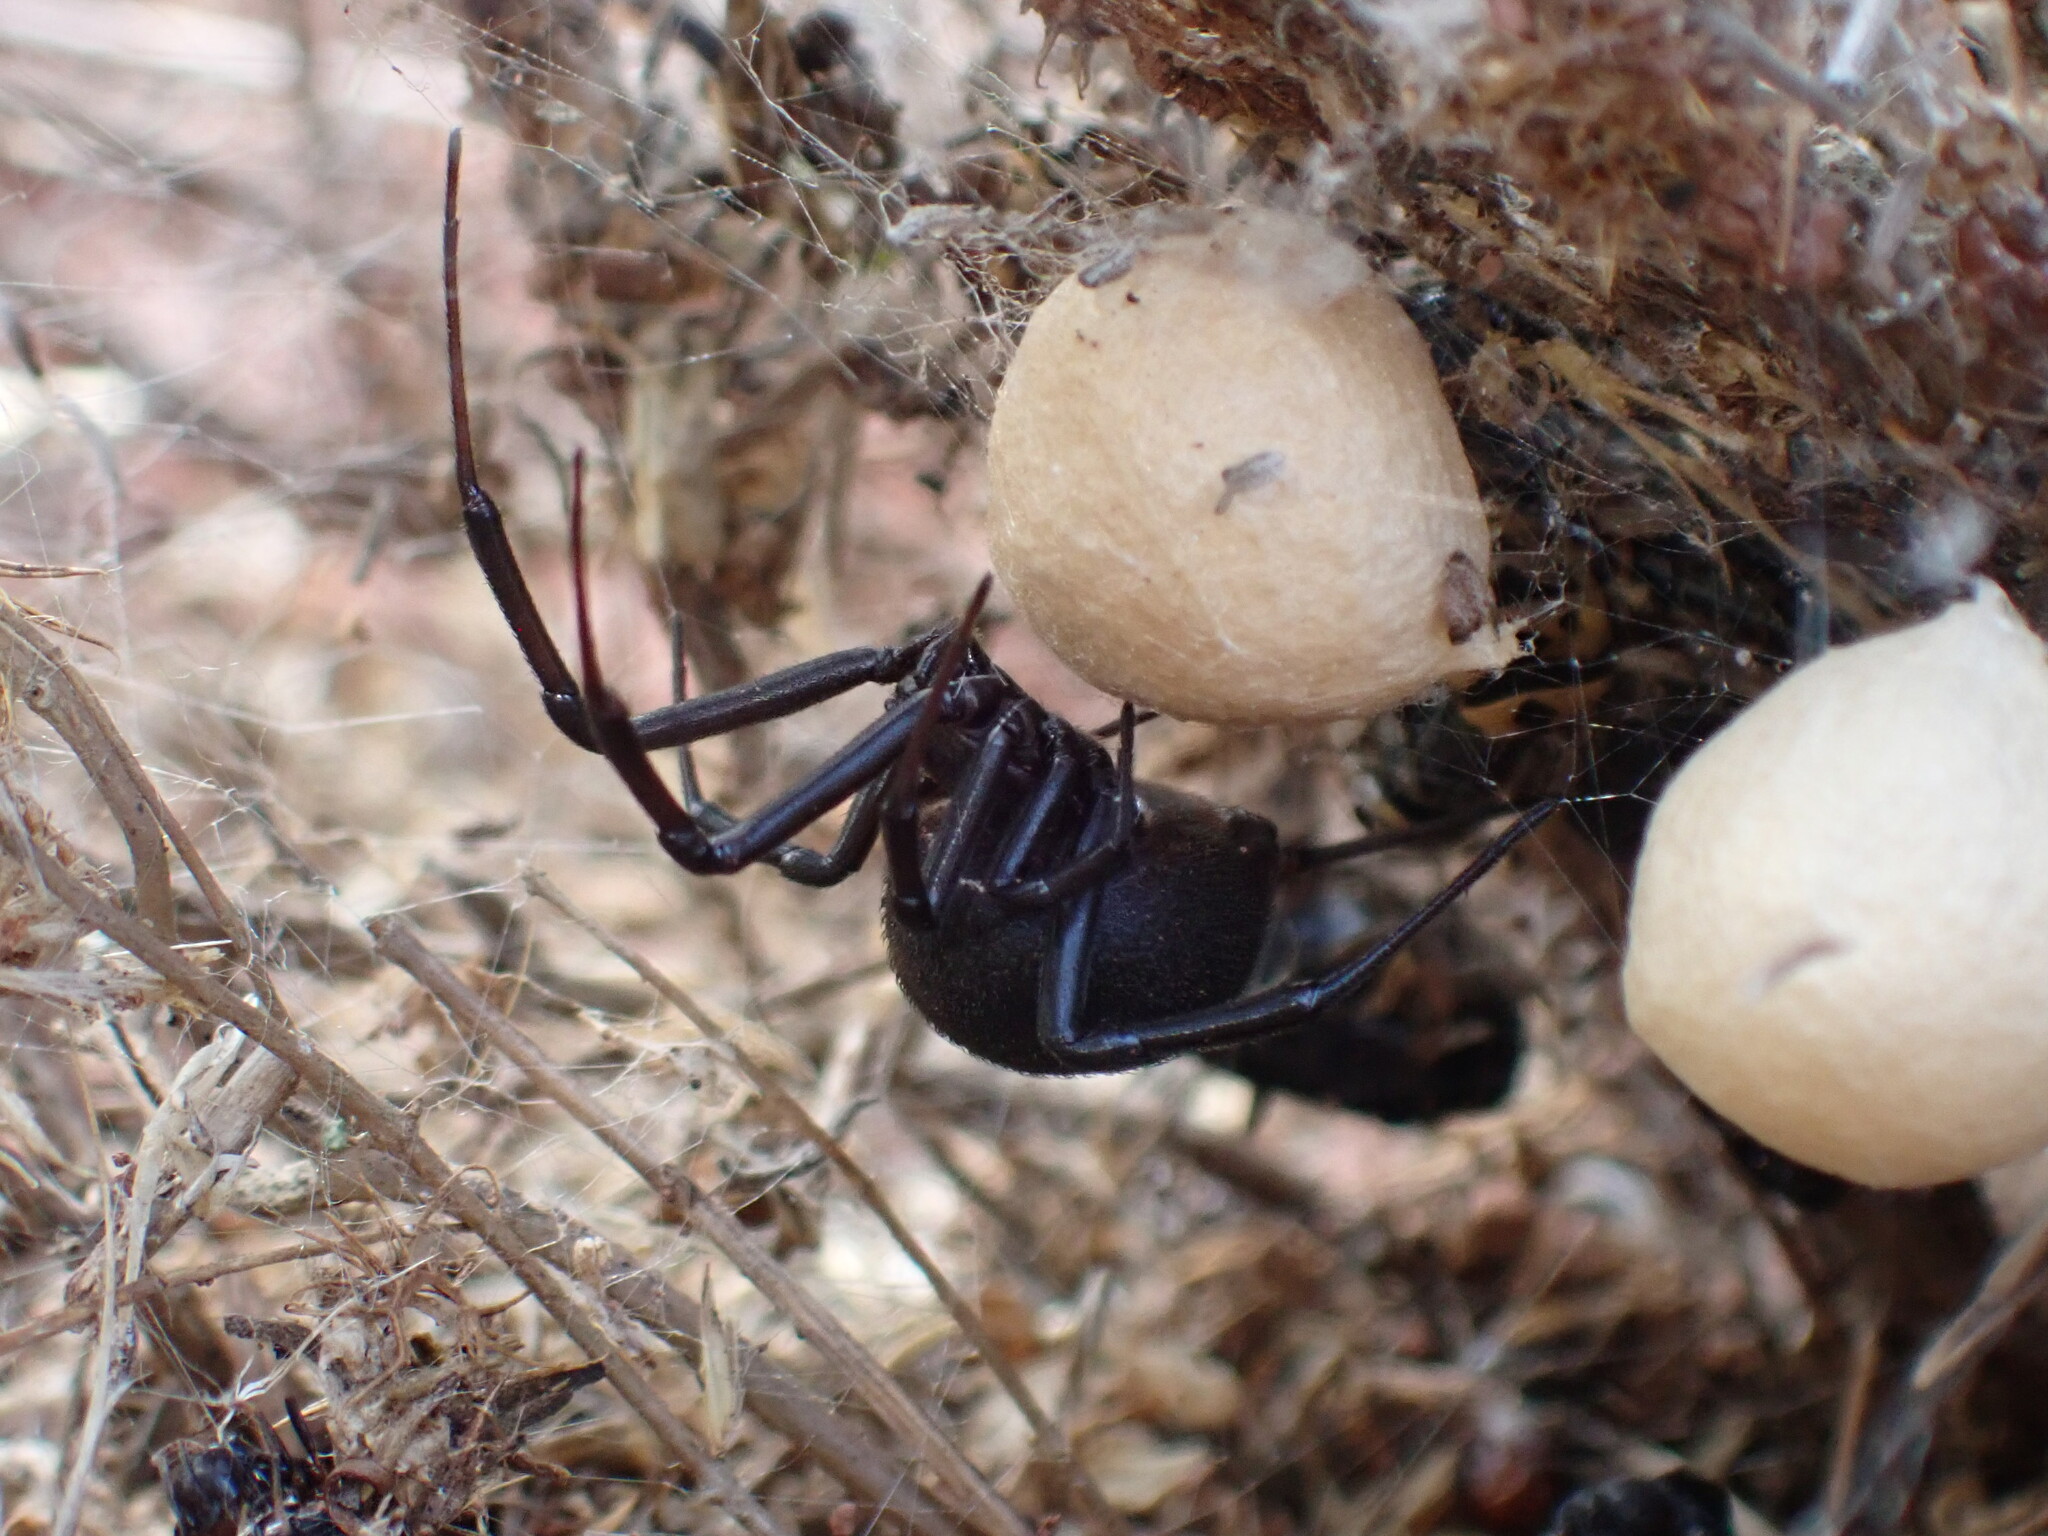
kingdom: Animalia
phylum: Arthropoda
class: Arachnida
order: Araneae
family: Theridiidae
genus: Latrodectus
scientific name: Latrodectus tredecimguttatus
